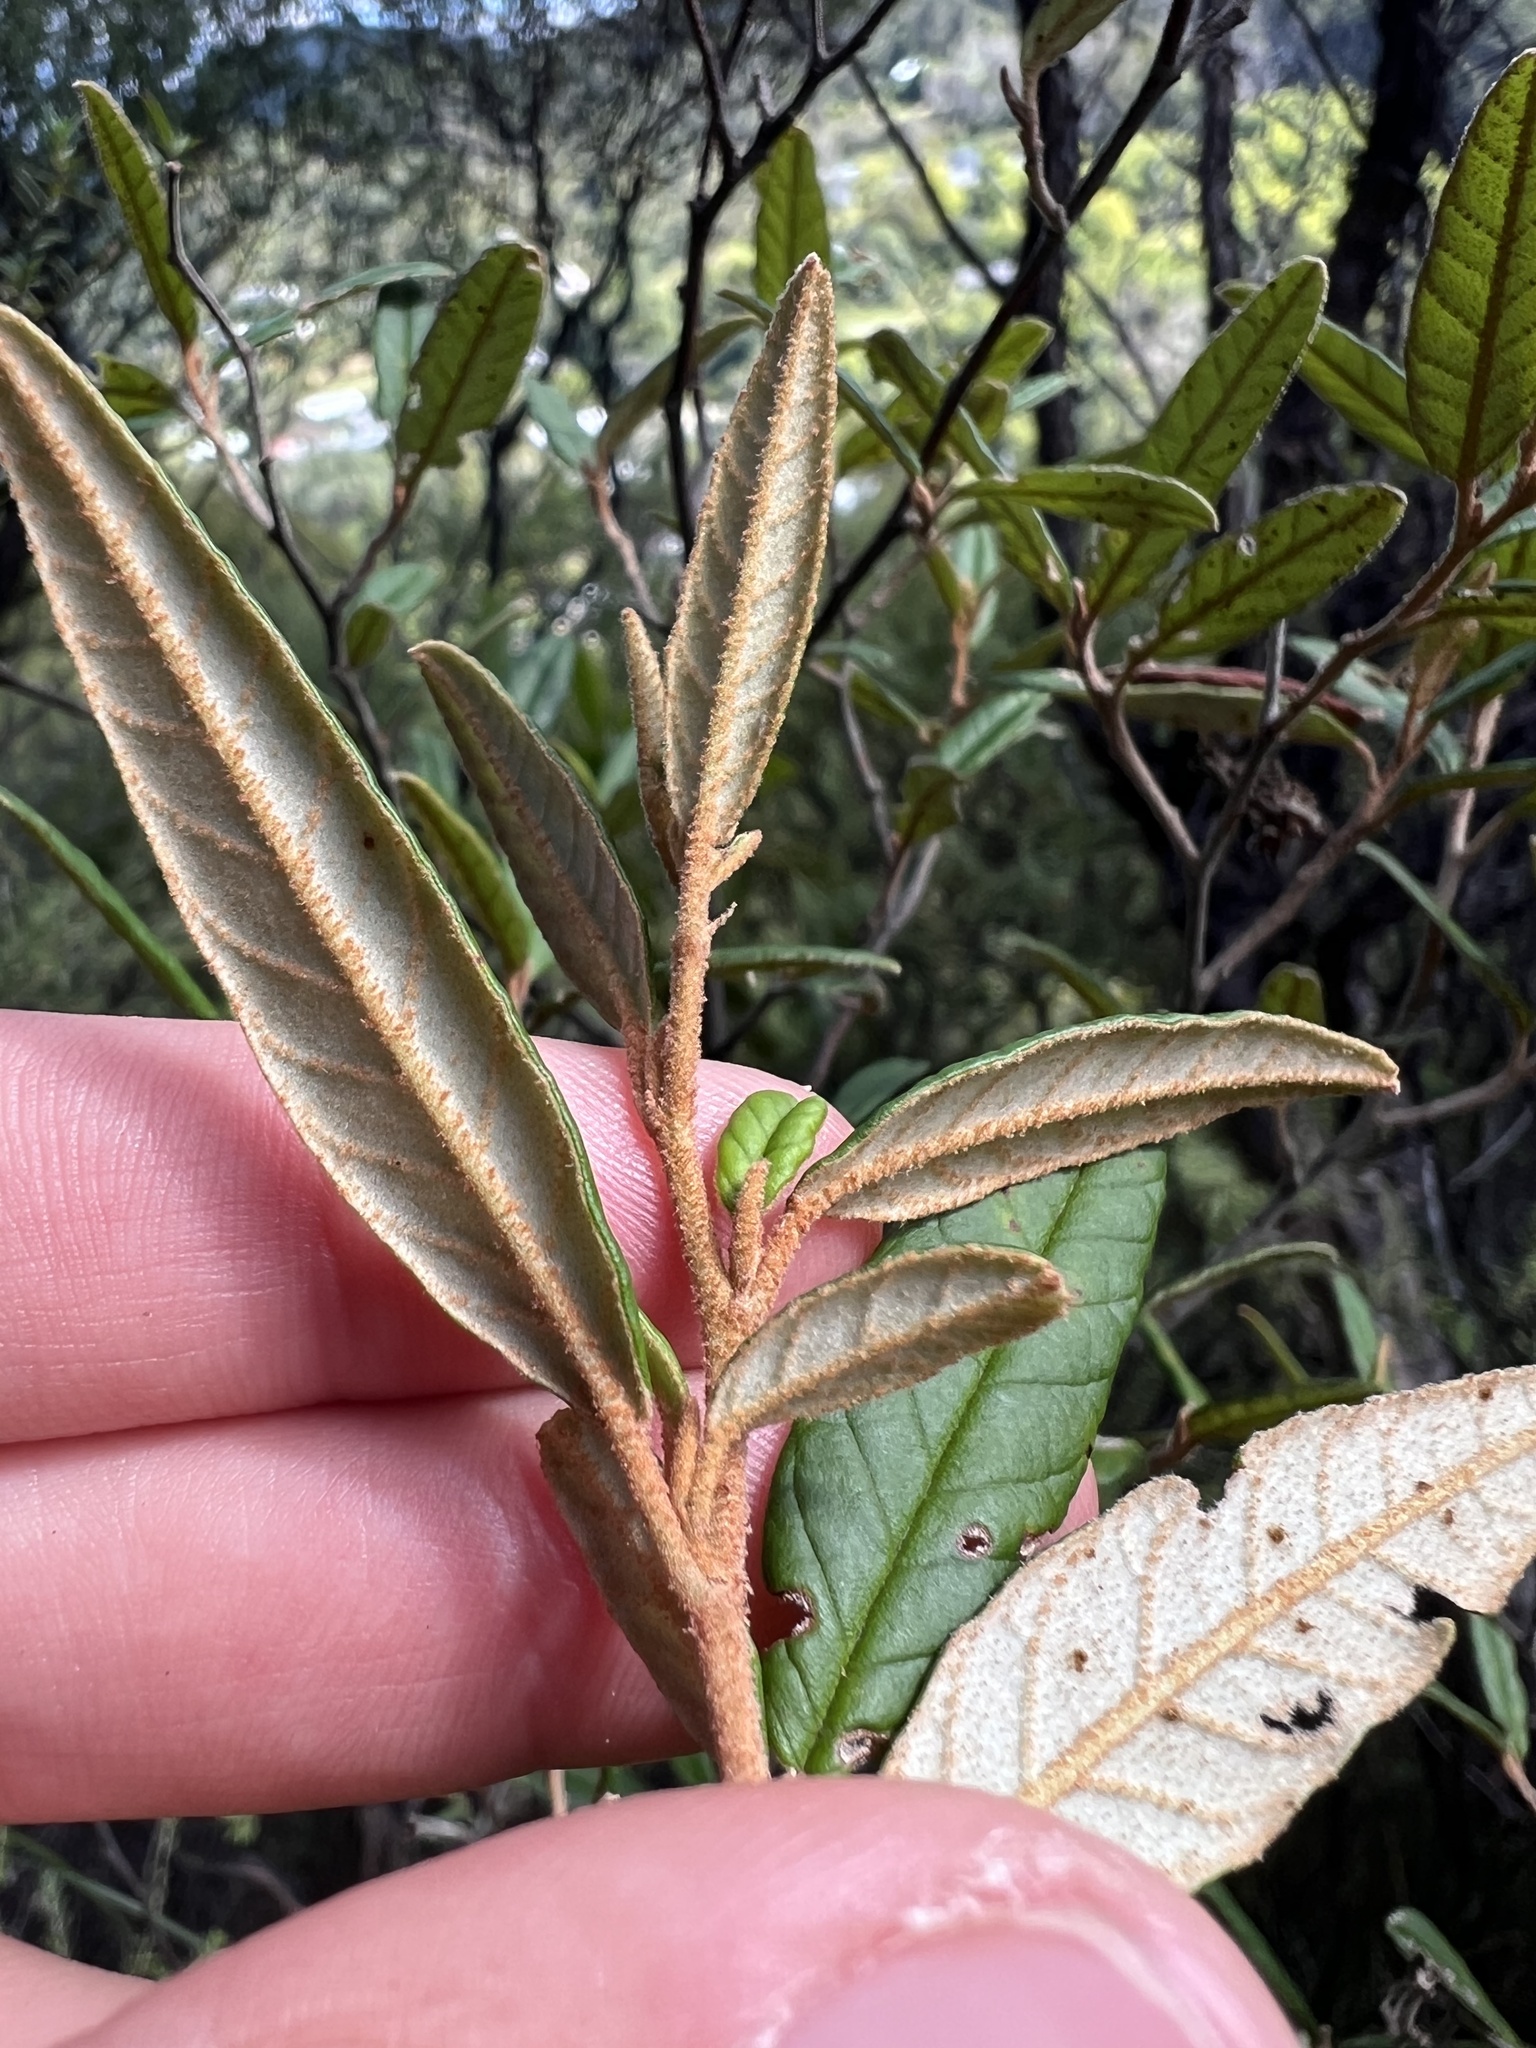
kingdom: Plantae
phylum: Tracheophyta
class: Magnoliopsida
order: Rosales
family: Rhamnaceae
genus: Pomaderris
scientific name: Pomaderris rugosa
